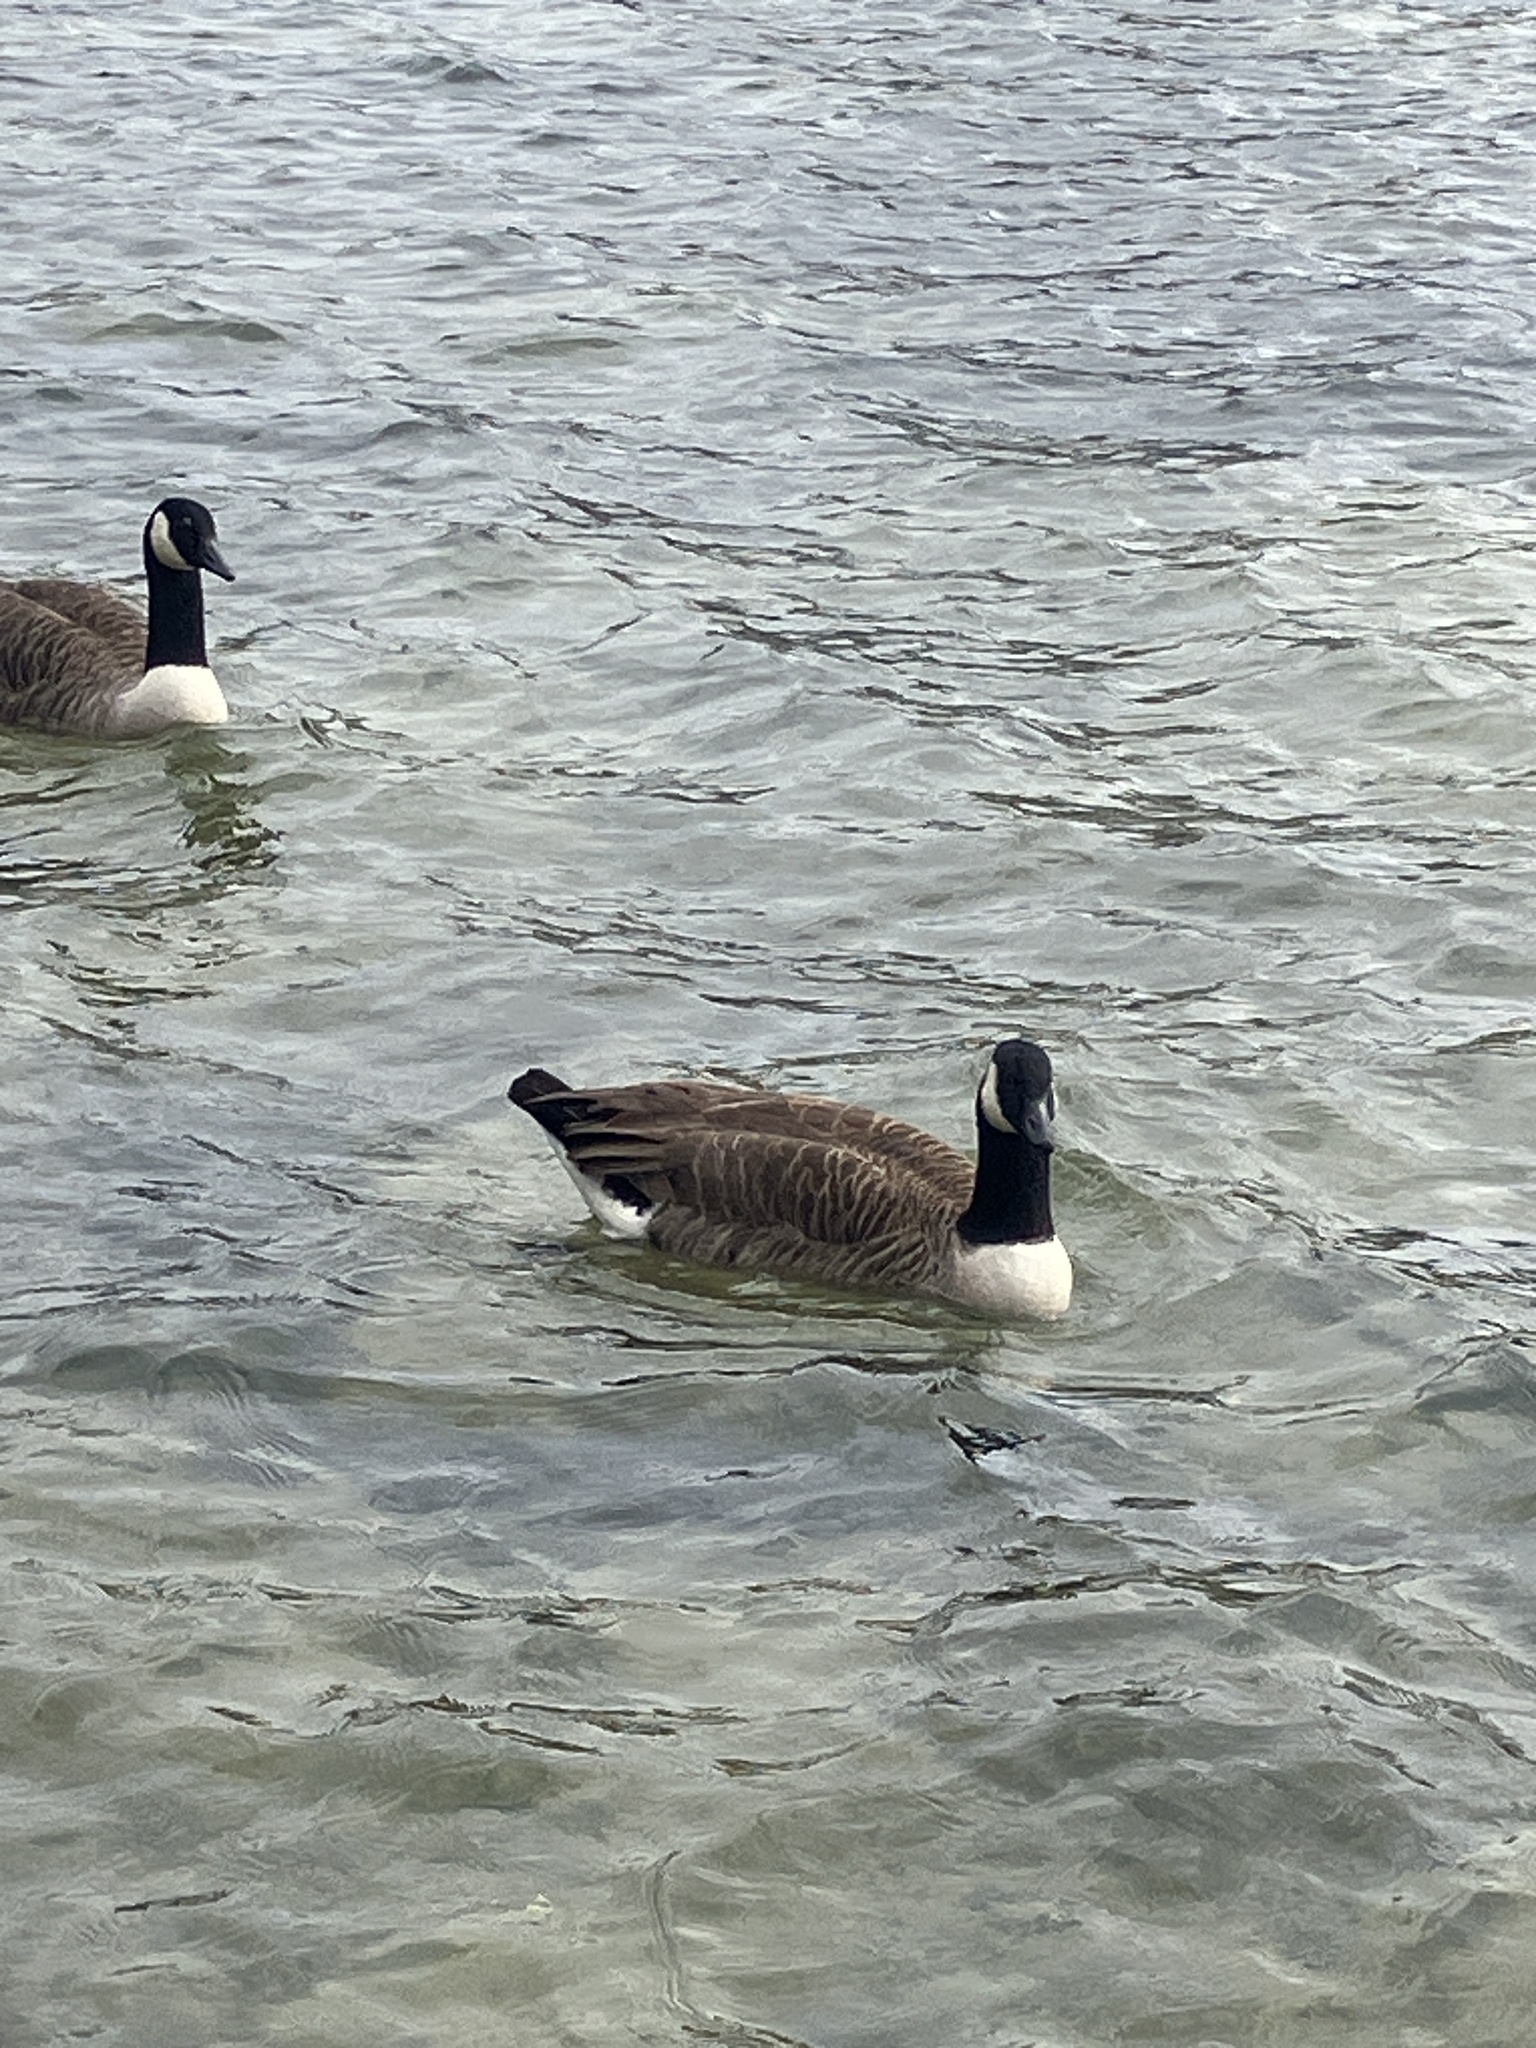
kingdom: Animalia
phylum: Chordata
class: Aves
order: Anseriformes
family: Anatidae
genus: Branta
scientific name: Branta canadensis
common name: Canada goose
